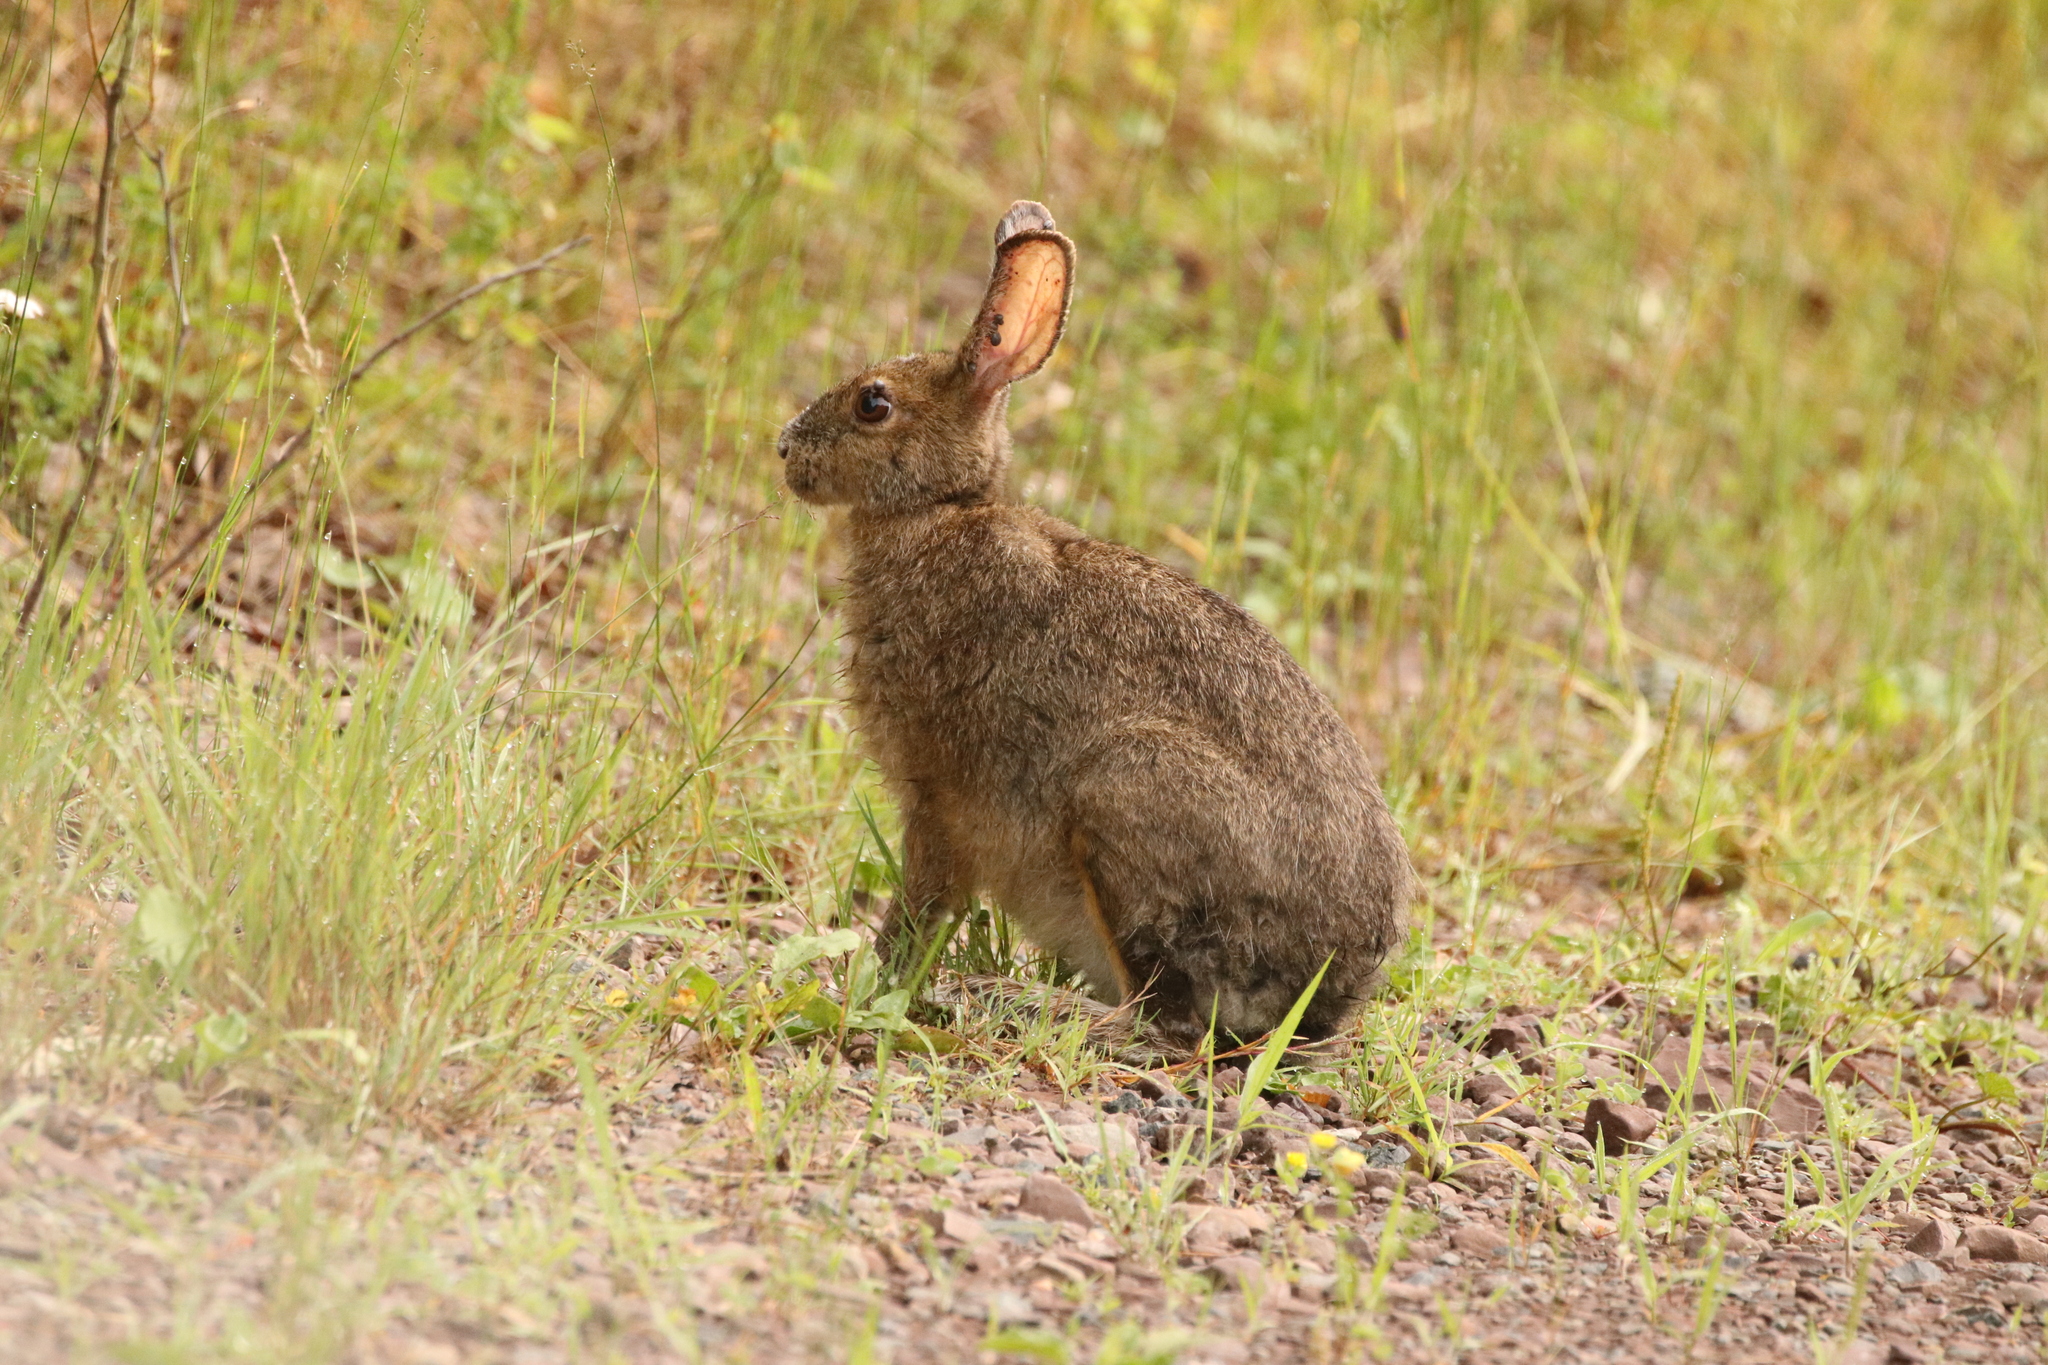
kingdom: Animalia
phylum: Chordata
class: Mammalia
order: Lagomorpha
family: Leporidae
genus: Lepus
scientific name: Lepus americanus
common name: Snowshoe hare
